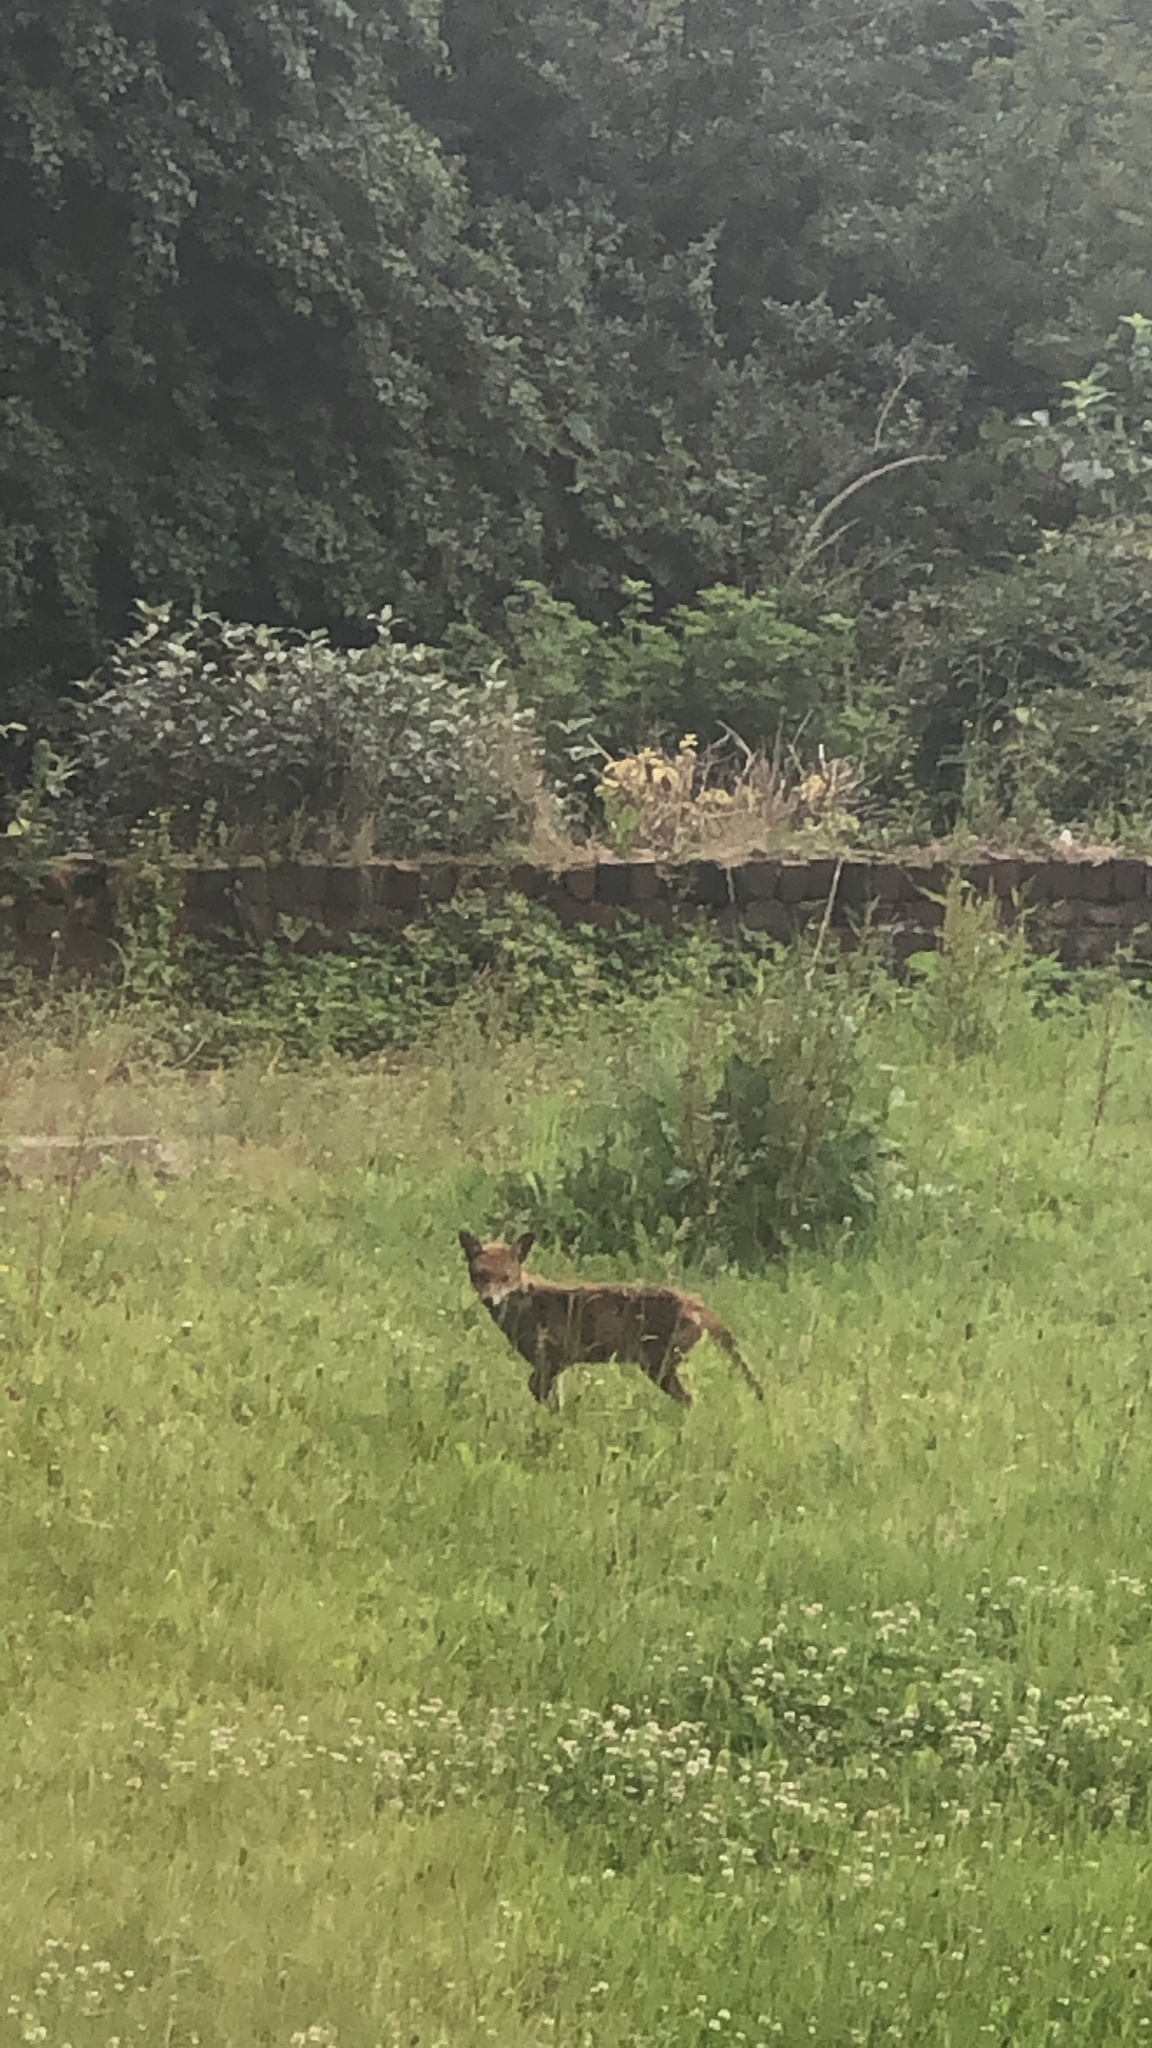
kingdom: Animalia
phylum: Chordata
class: Mammalia
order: Carnivora
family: Canidae
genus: Vulpes
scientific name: Vulpes vulpes
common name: Red fox
